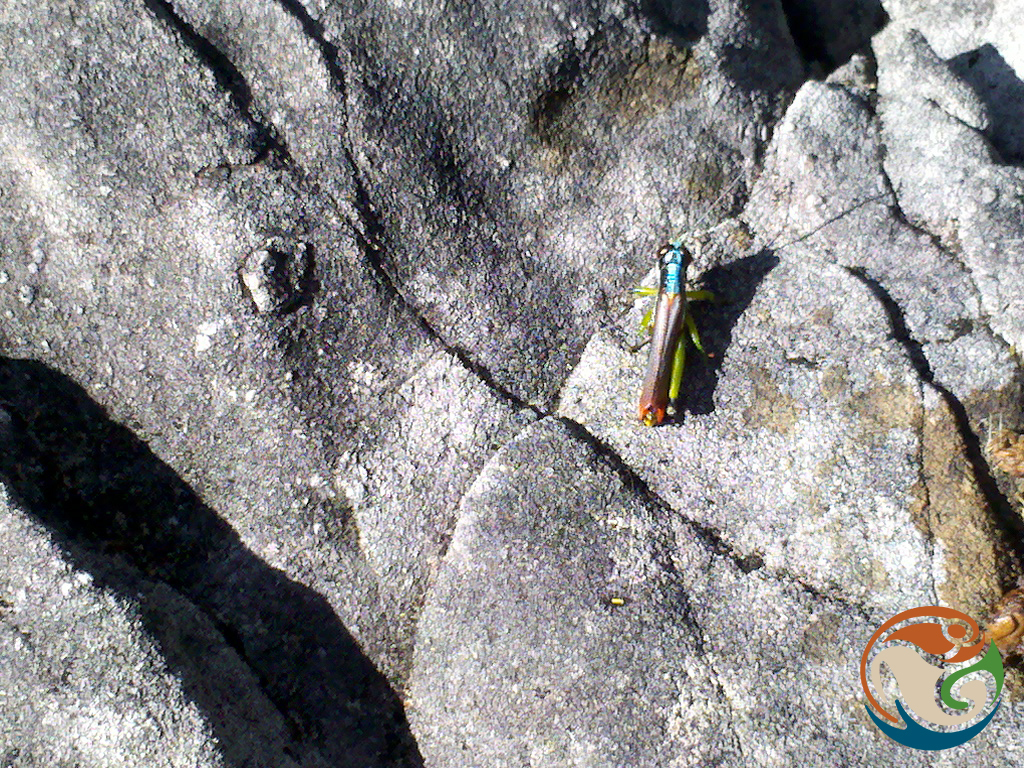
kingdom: Animalia
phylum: Arthropoda
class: Insecta
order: Orthoptera
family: Acrididae
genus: Proctolabus
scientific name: Proctolabus mexicanus
